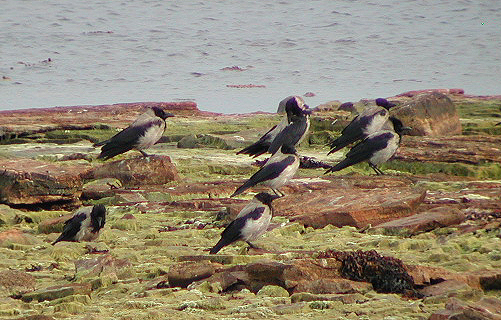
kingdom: Animalia
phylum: Chordata
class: Aves
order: Passeriformes
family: Corvidae
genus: Corvus
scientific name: Corvus cornix
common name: Hooded crow
